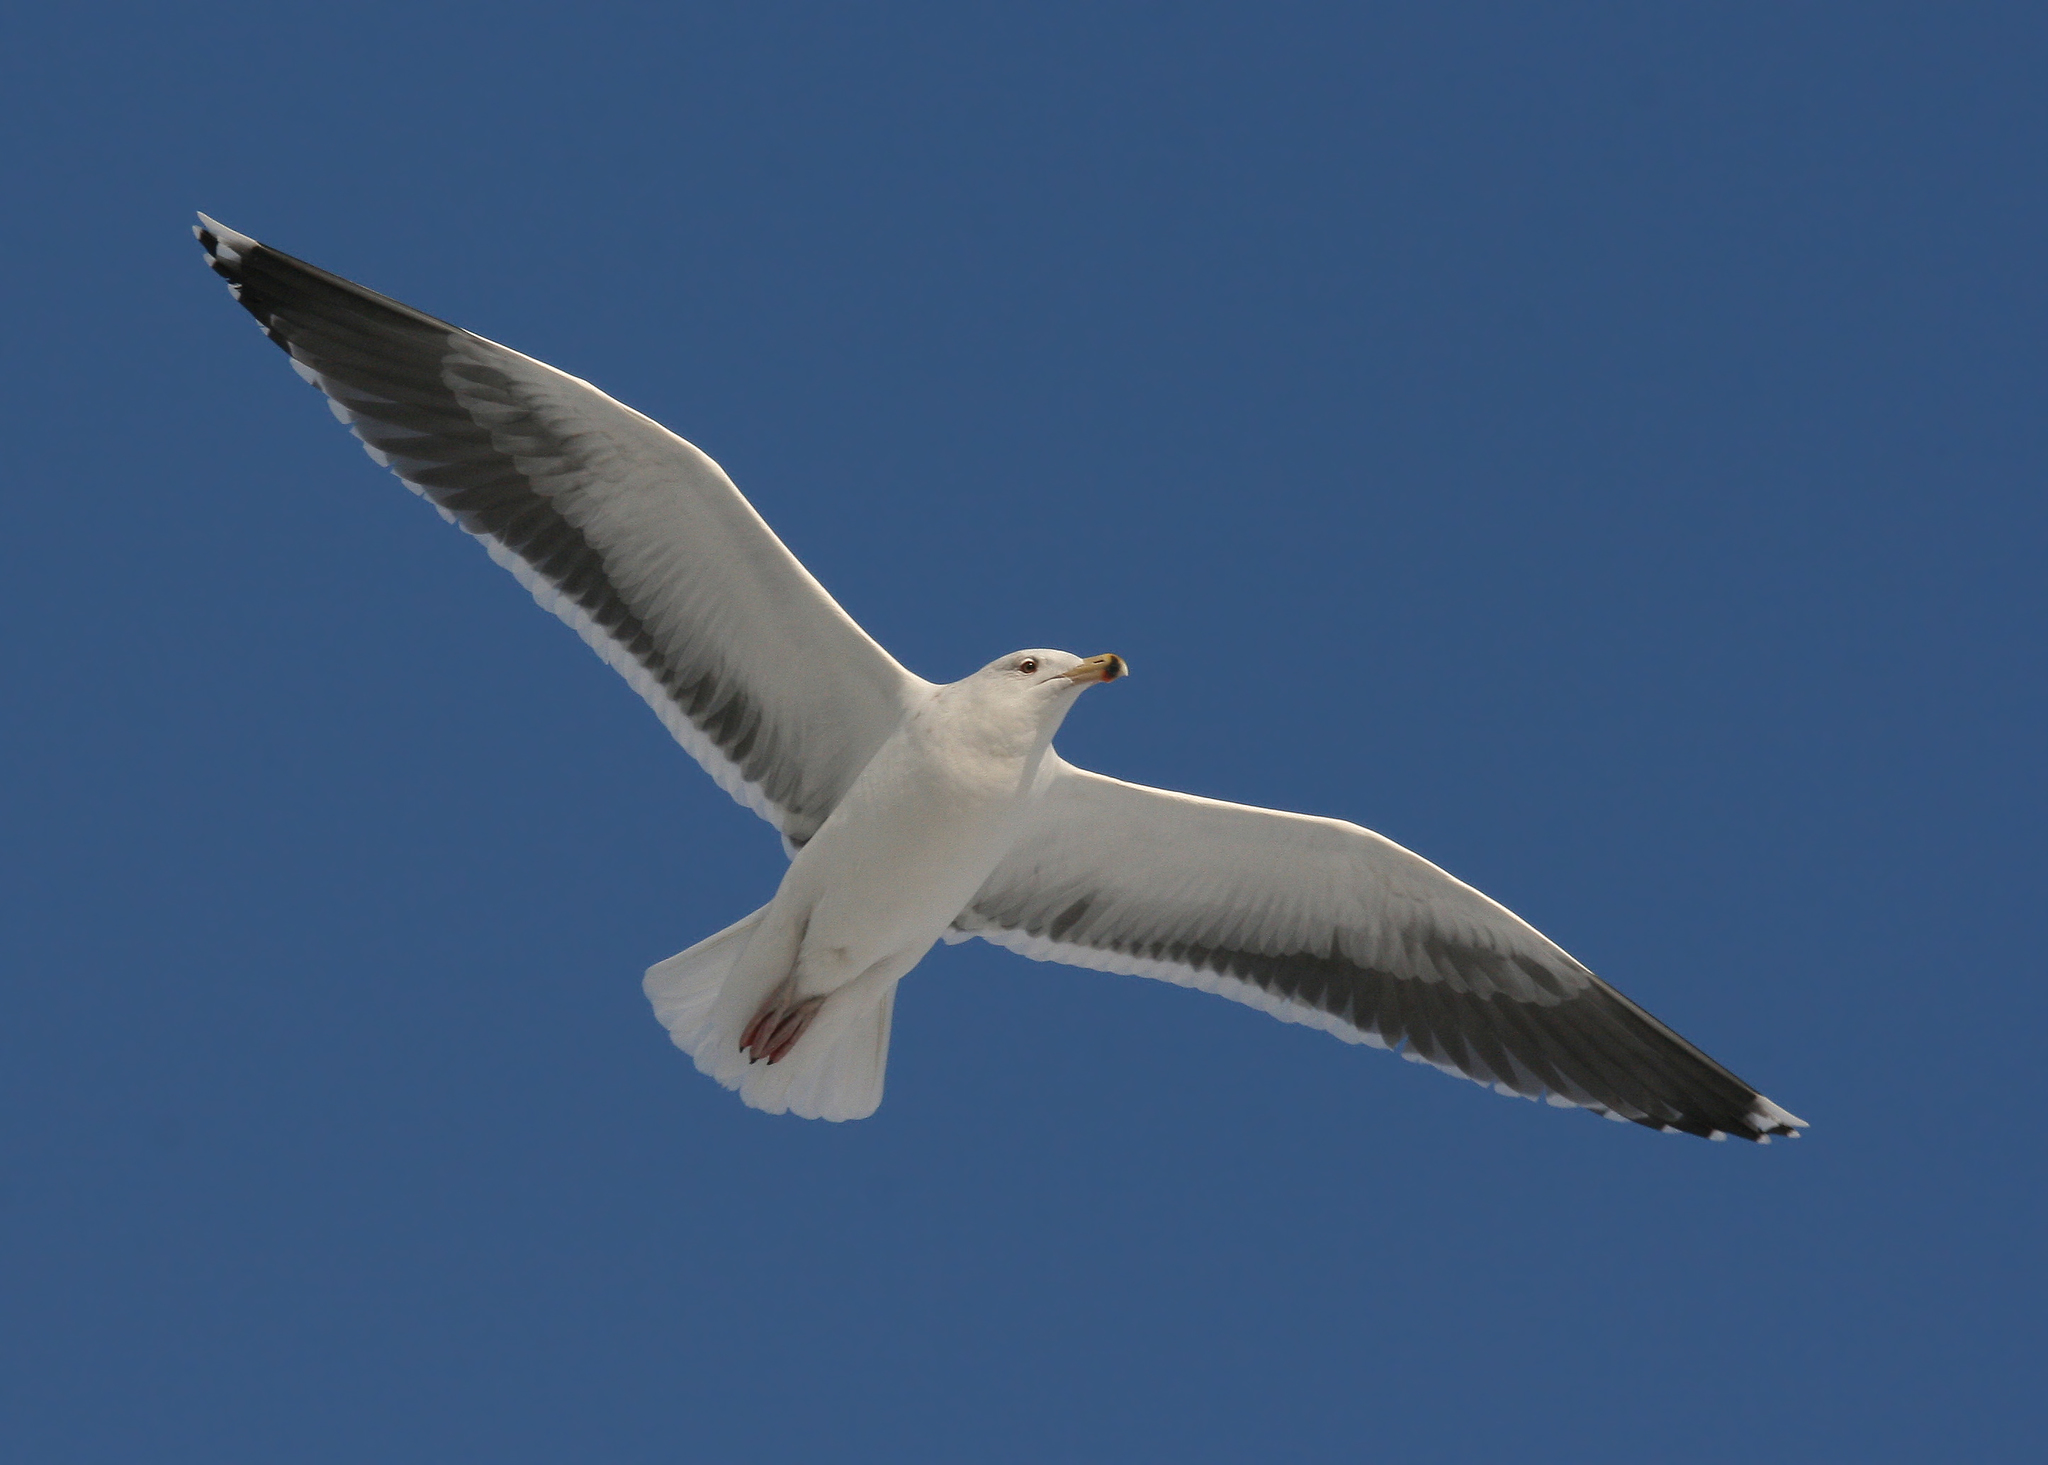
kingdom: Animalia
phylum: Chordata
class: Aves
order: Charadriiformes
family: Laridae
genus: Larus
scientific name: Larus marinus
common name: Great black-backed gull
